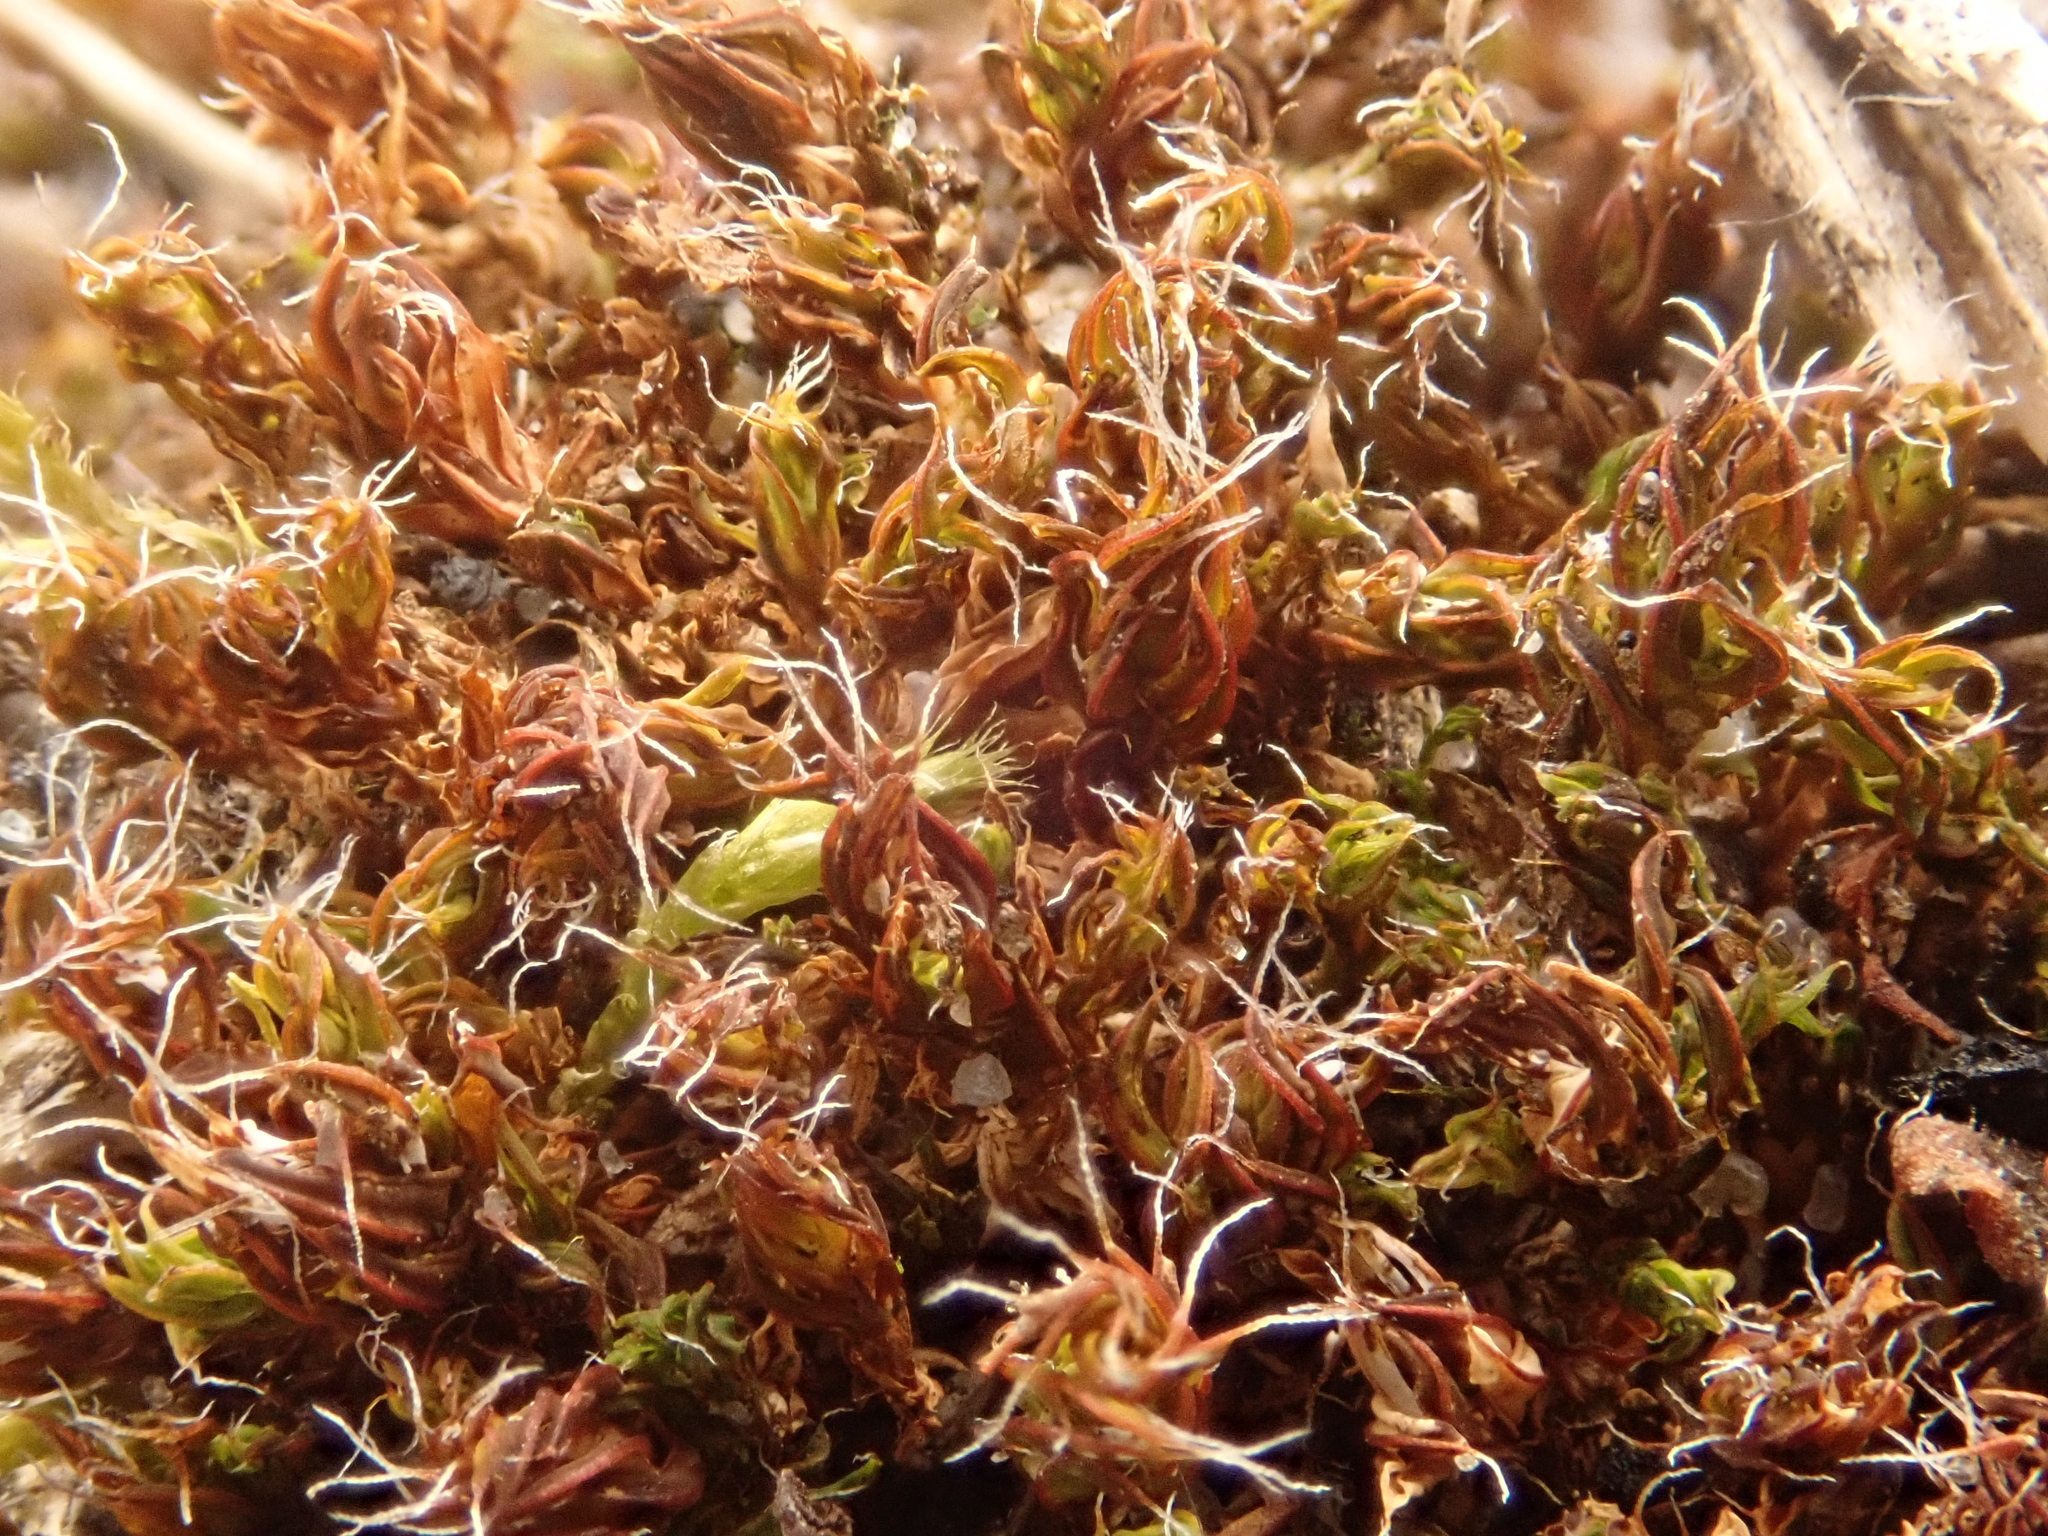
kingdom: Plantae
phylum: Bryophyta
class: Bryopsida
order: Pottiales
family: Pottiaceae
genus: Syntrichia
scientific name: Syntrichia ruralis
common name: Sidewalk screw moss
